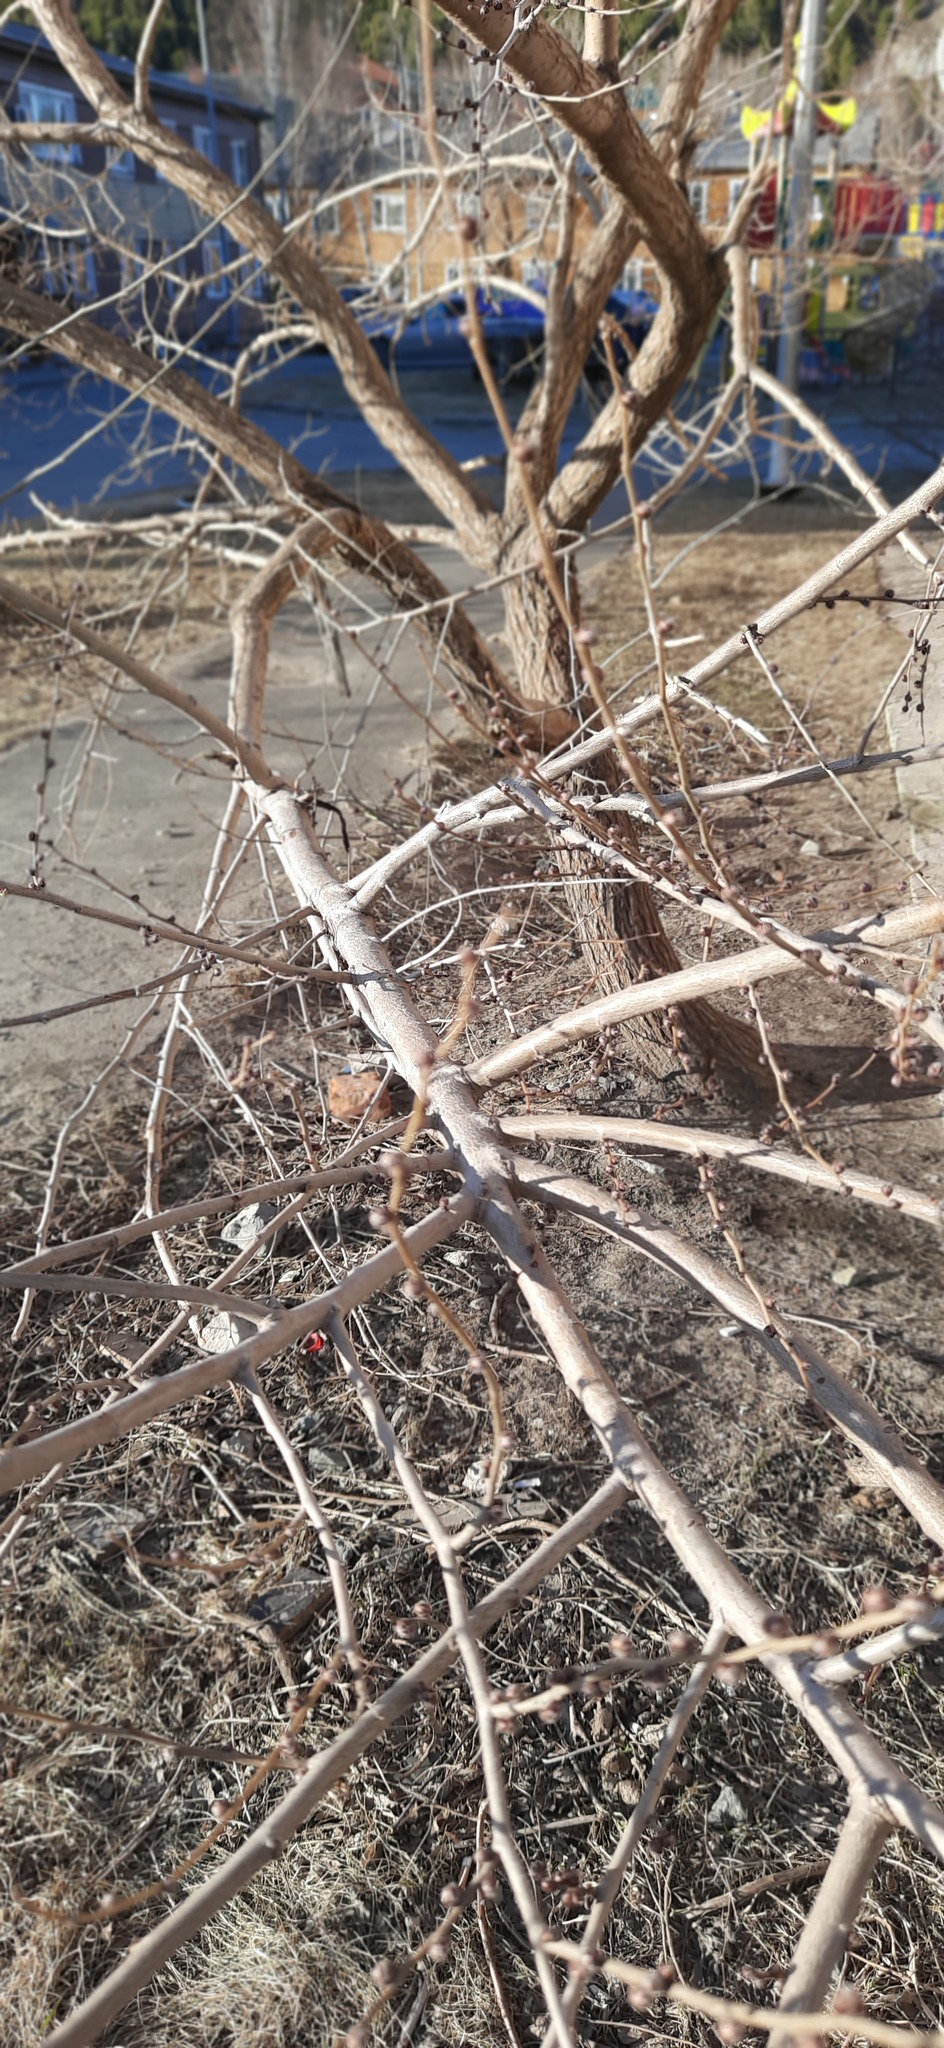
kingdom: Plantae
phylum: Tracheophyta
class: Magnoliopsida
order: Rosales
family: Ulmaceae
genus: Ulmus
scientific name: Ulmus pumila
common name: Siberian elm
